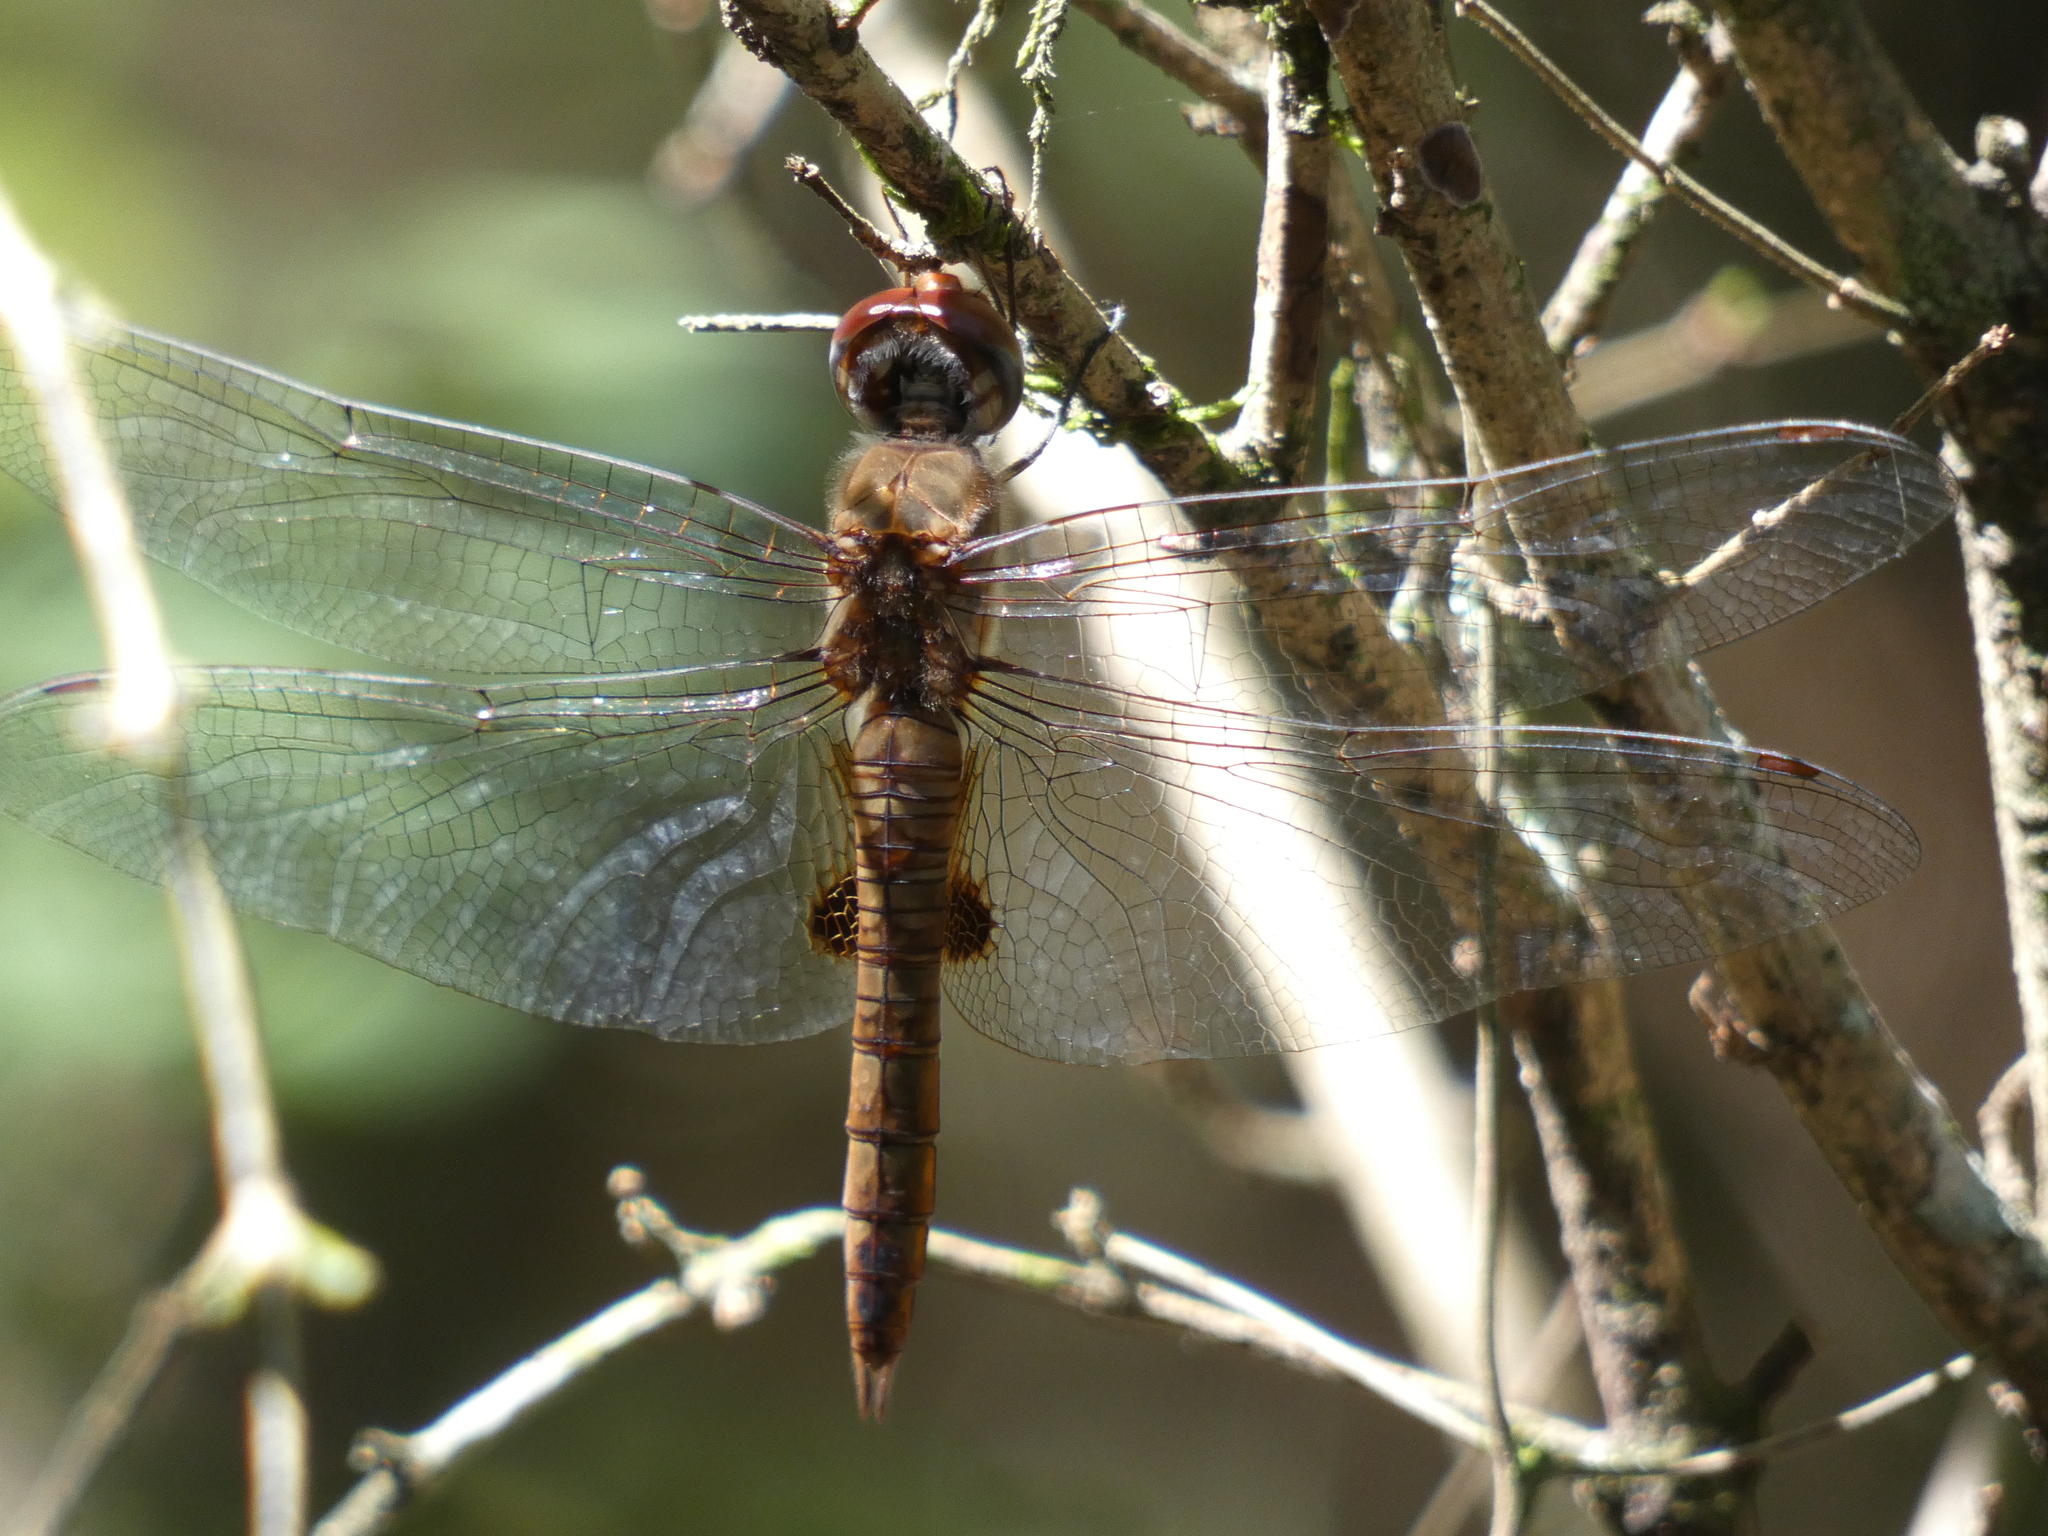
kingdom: Animalia
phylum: Arthropoda
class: Insecta
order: Odonata
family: Libellulidae
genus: Pantala
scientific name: Pantala hymenaea
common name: Spot-winged glider
